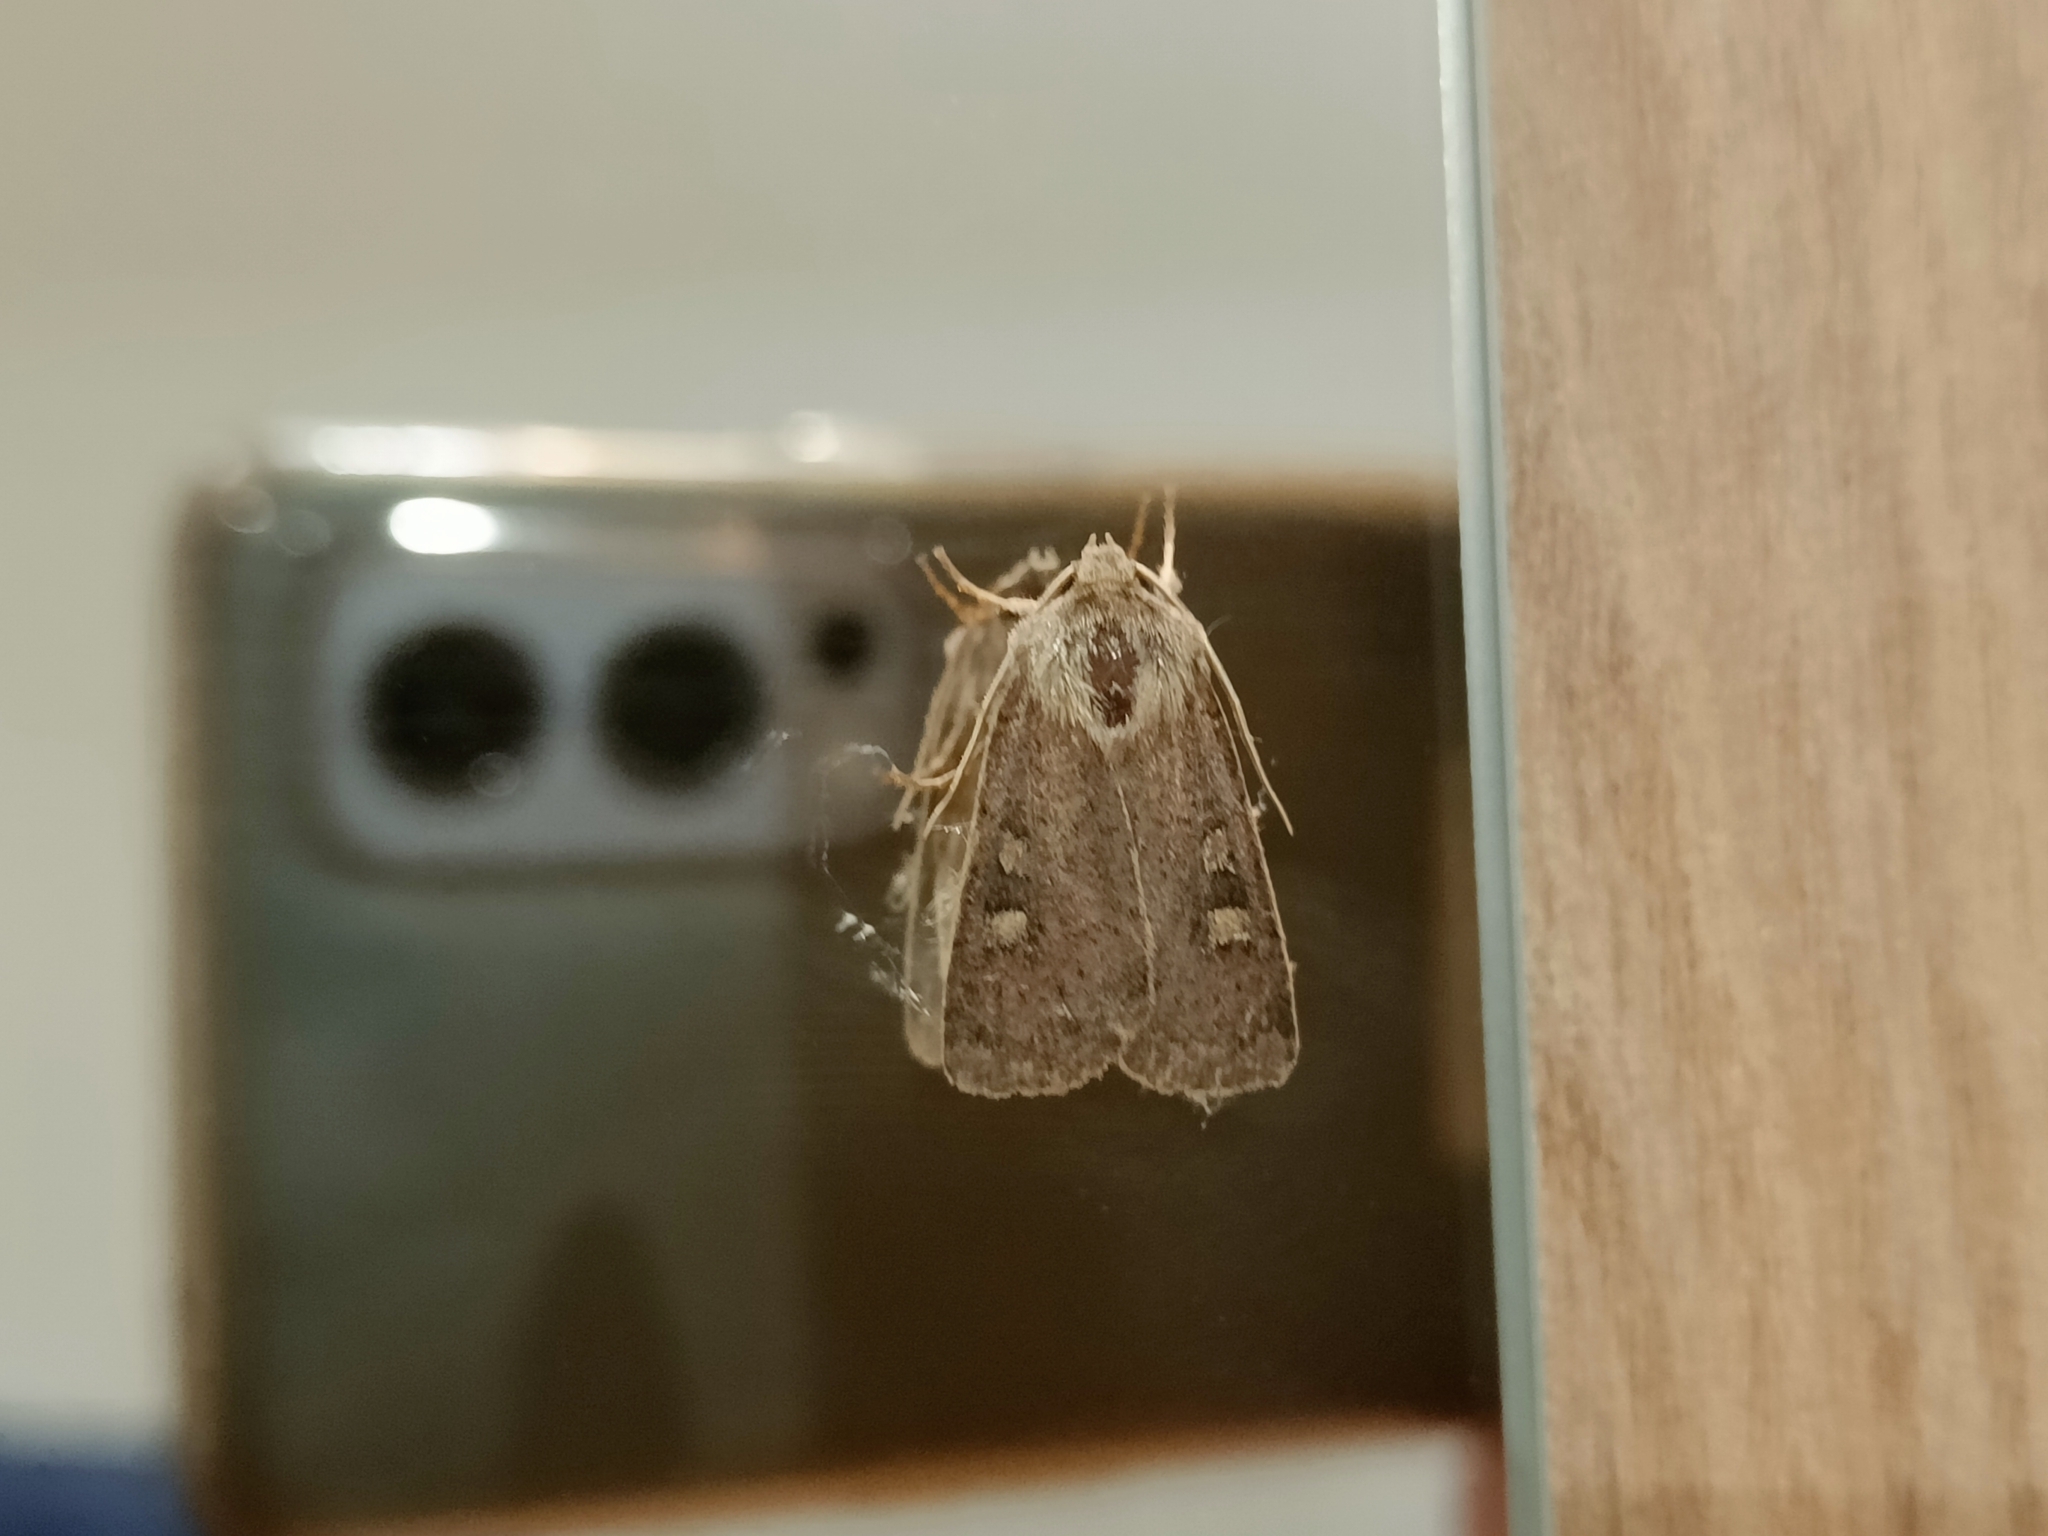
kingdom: Animalia
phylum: Arthropoda
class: Insecta
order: Lepidoptera
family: Noctuidae
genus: Xestia
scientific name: Xestia xanthographa
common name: Square-spot rustic
